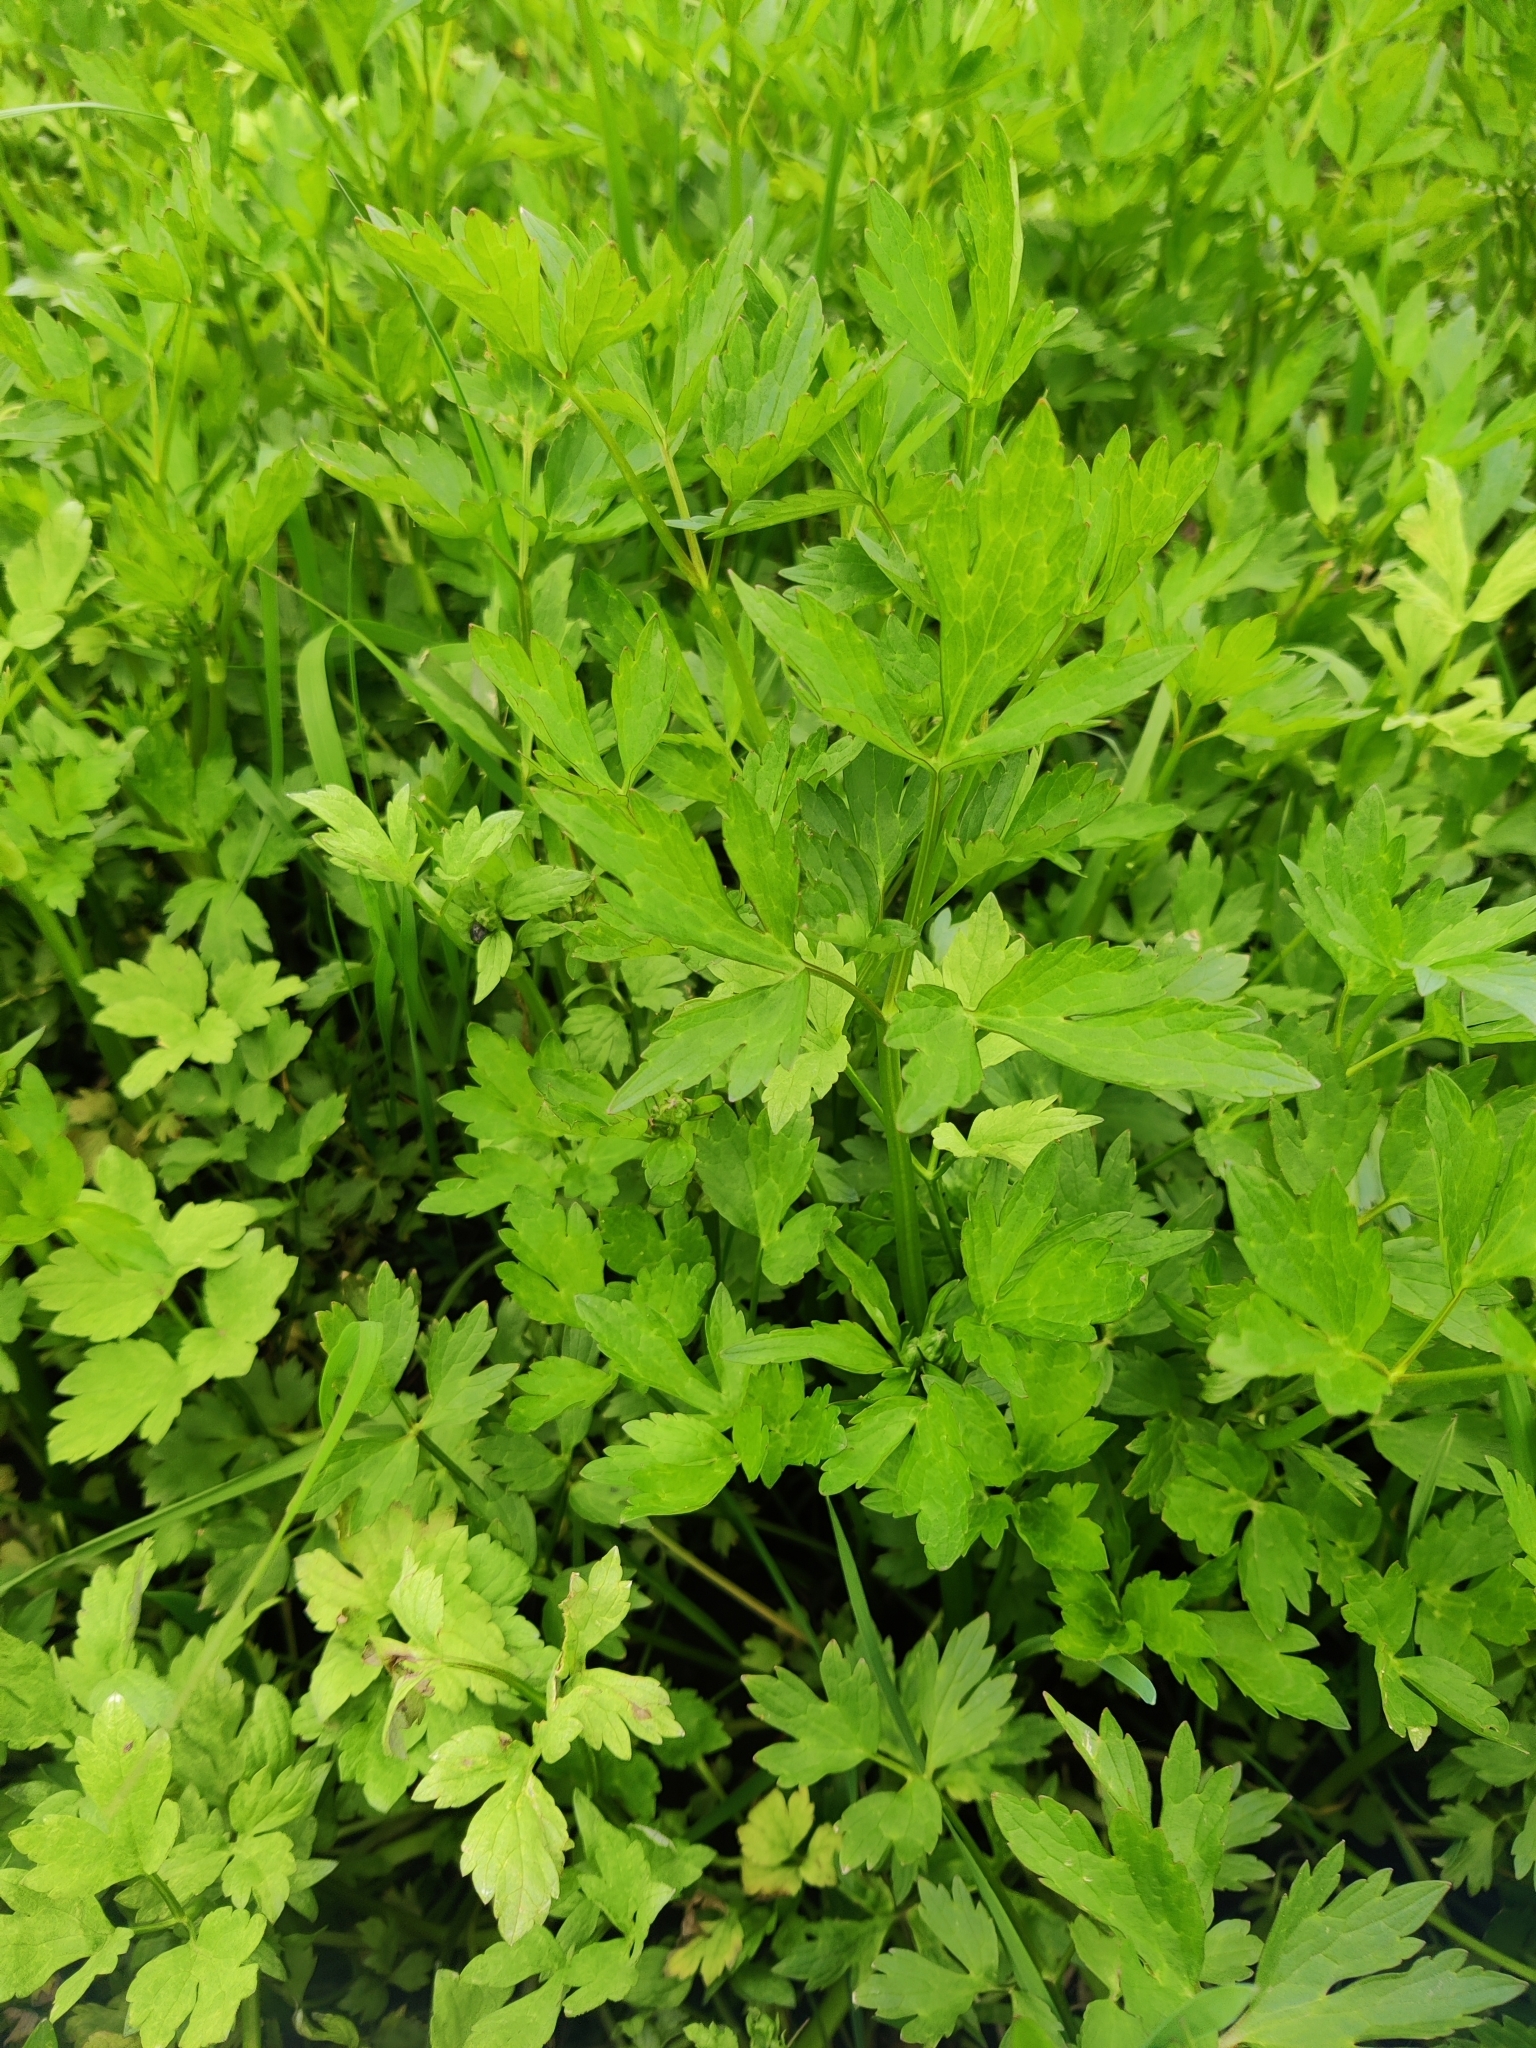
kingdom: Plantae
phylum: Tracheophyta
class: Magnoliopsida
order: Ranunculales
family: Ranunculaceae
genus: Ranunculus
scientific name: Ranunculus repens
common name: Creeping buttercup
